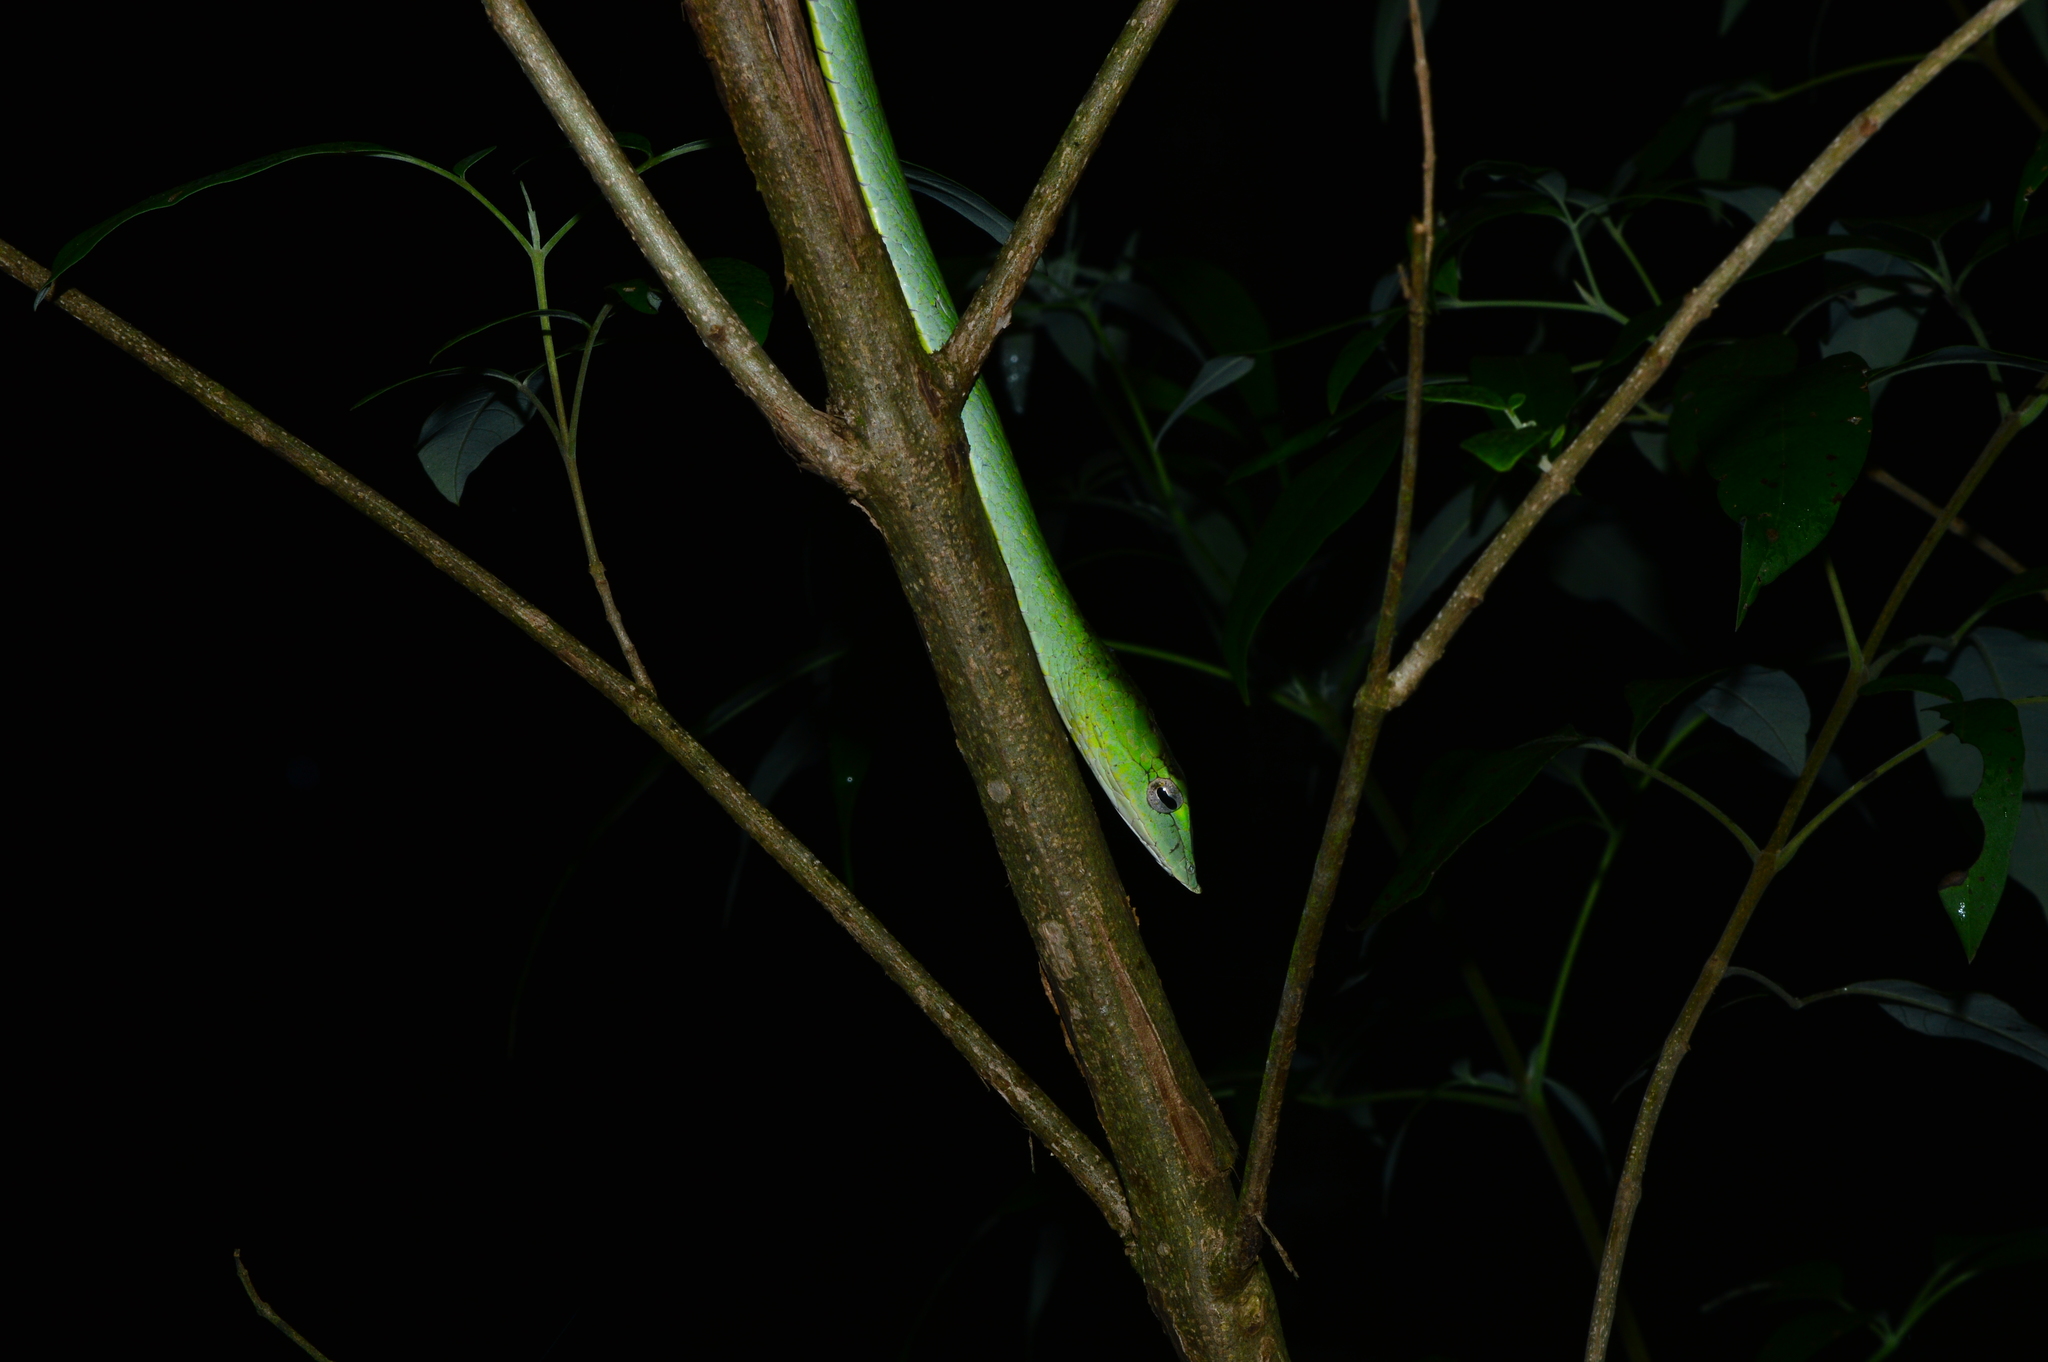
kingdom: Animalia
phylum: Chordata
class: Squamata
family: Colubridae
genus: Ahaetulla
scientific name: Ahaetulla farnsworthi
